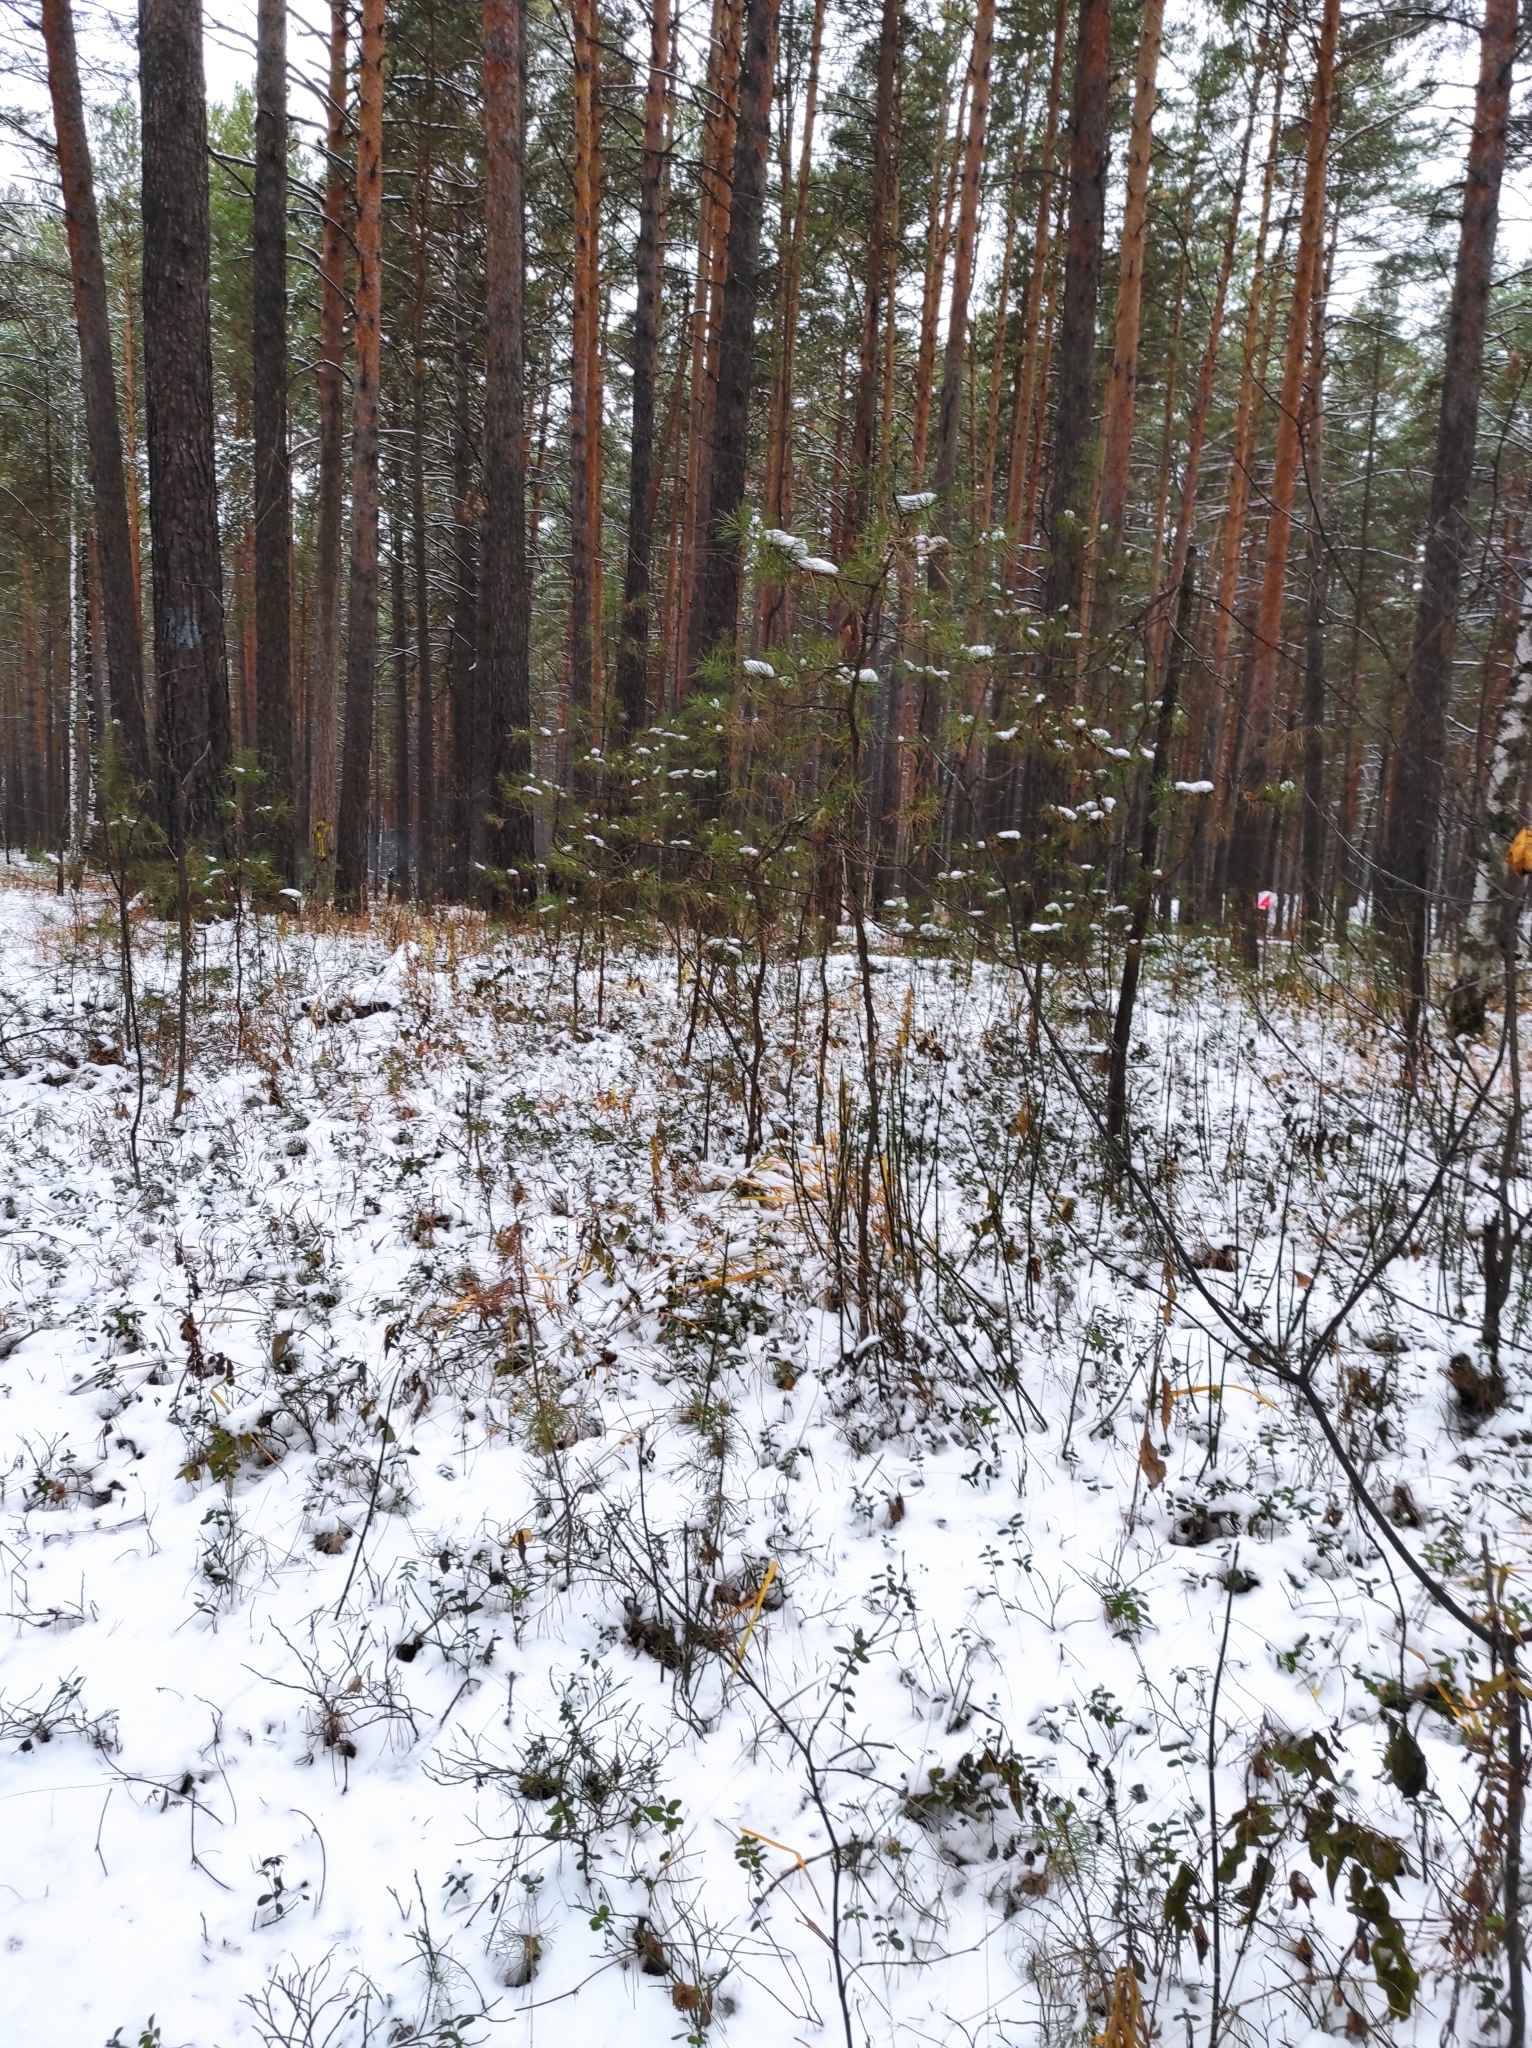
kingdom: Plantae
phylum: Tracheophyta
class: Pinopsida
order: Pinales
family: Pinaceae
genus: Pinus
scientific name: Pinus sylvestris
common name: Scots pine
